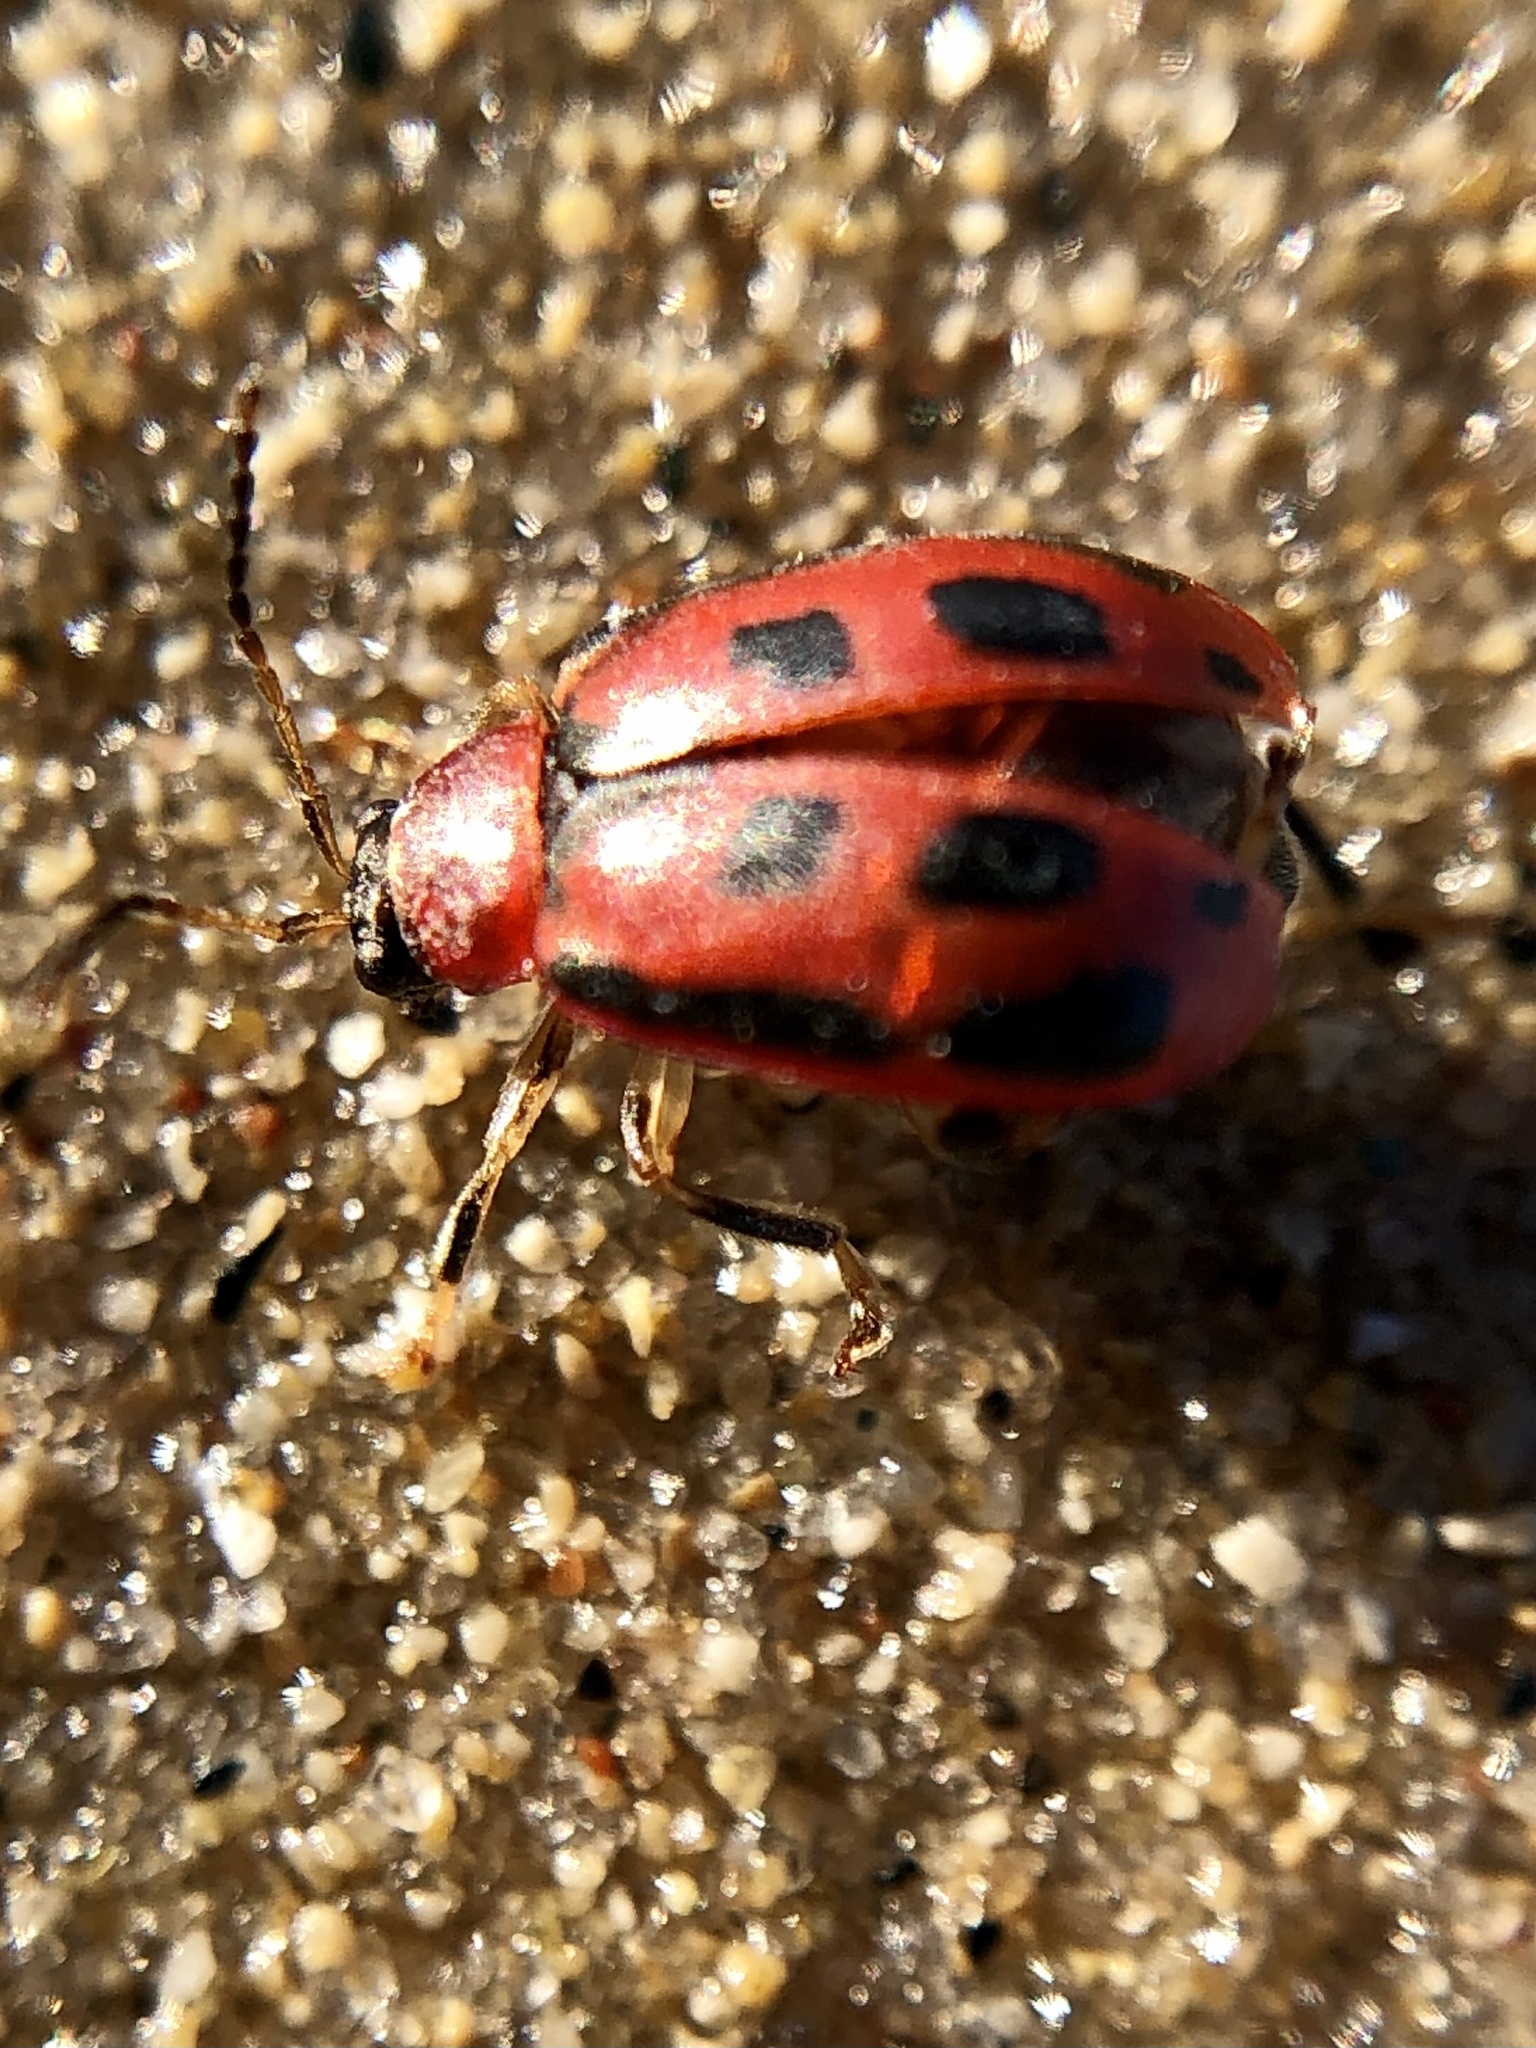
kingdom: Animalia
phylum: Arthropoda
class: Insecta
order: Coleoptera
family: Chrysomelidae
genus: Cerotoma
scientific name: Cerotoma trifurcata
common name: Bean leaf beetle
